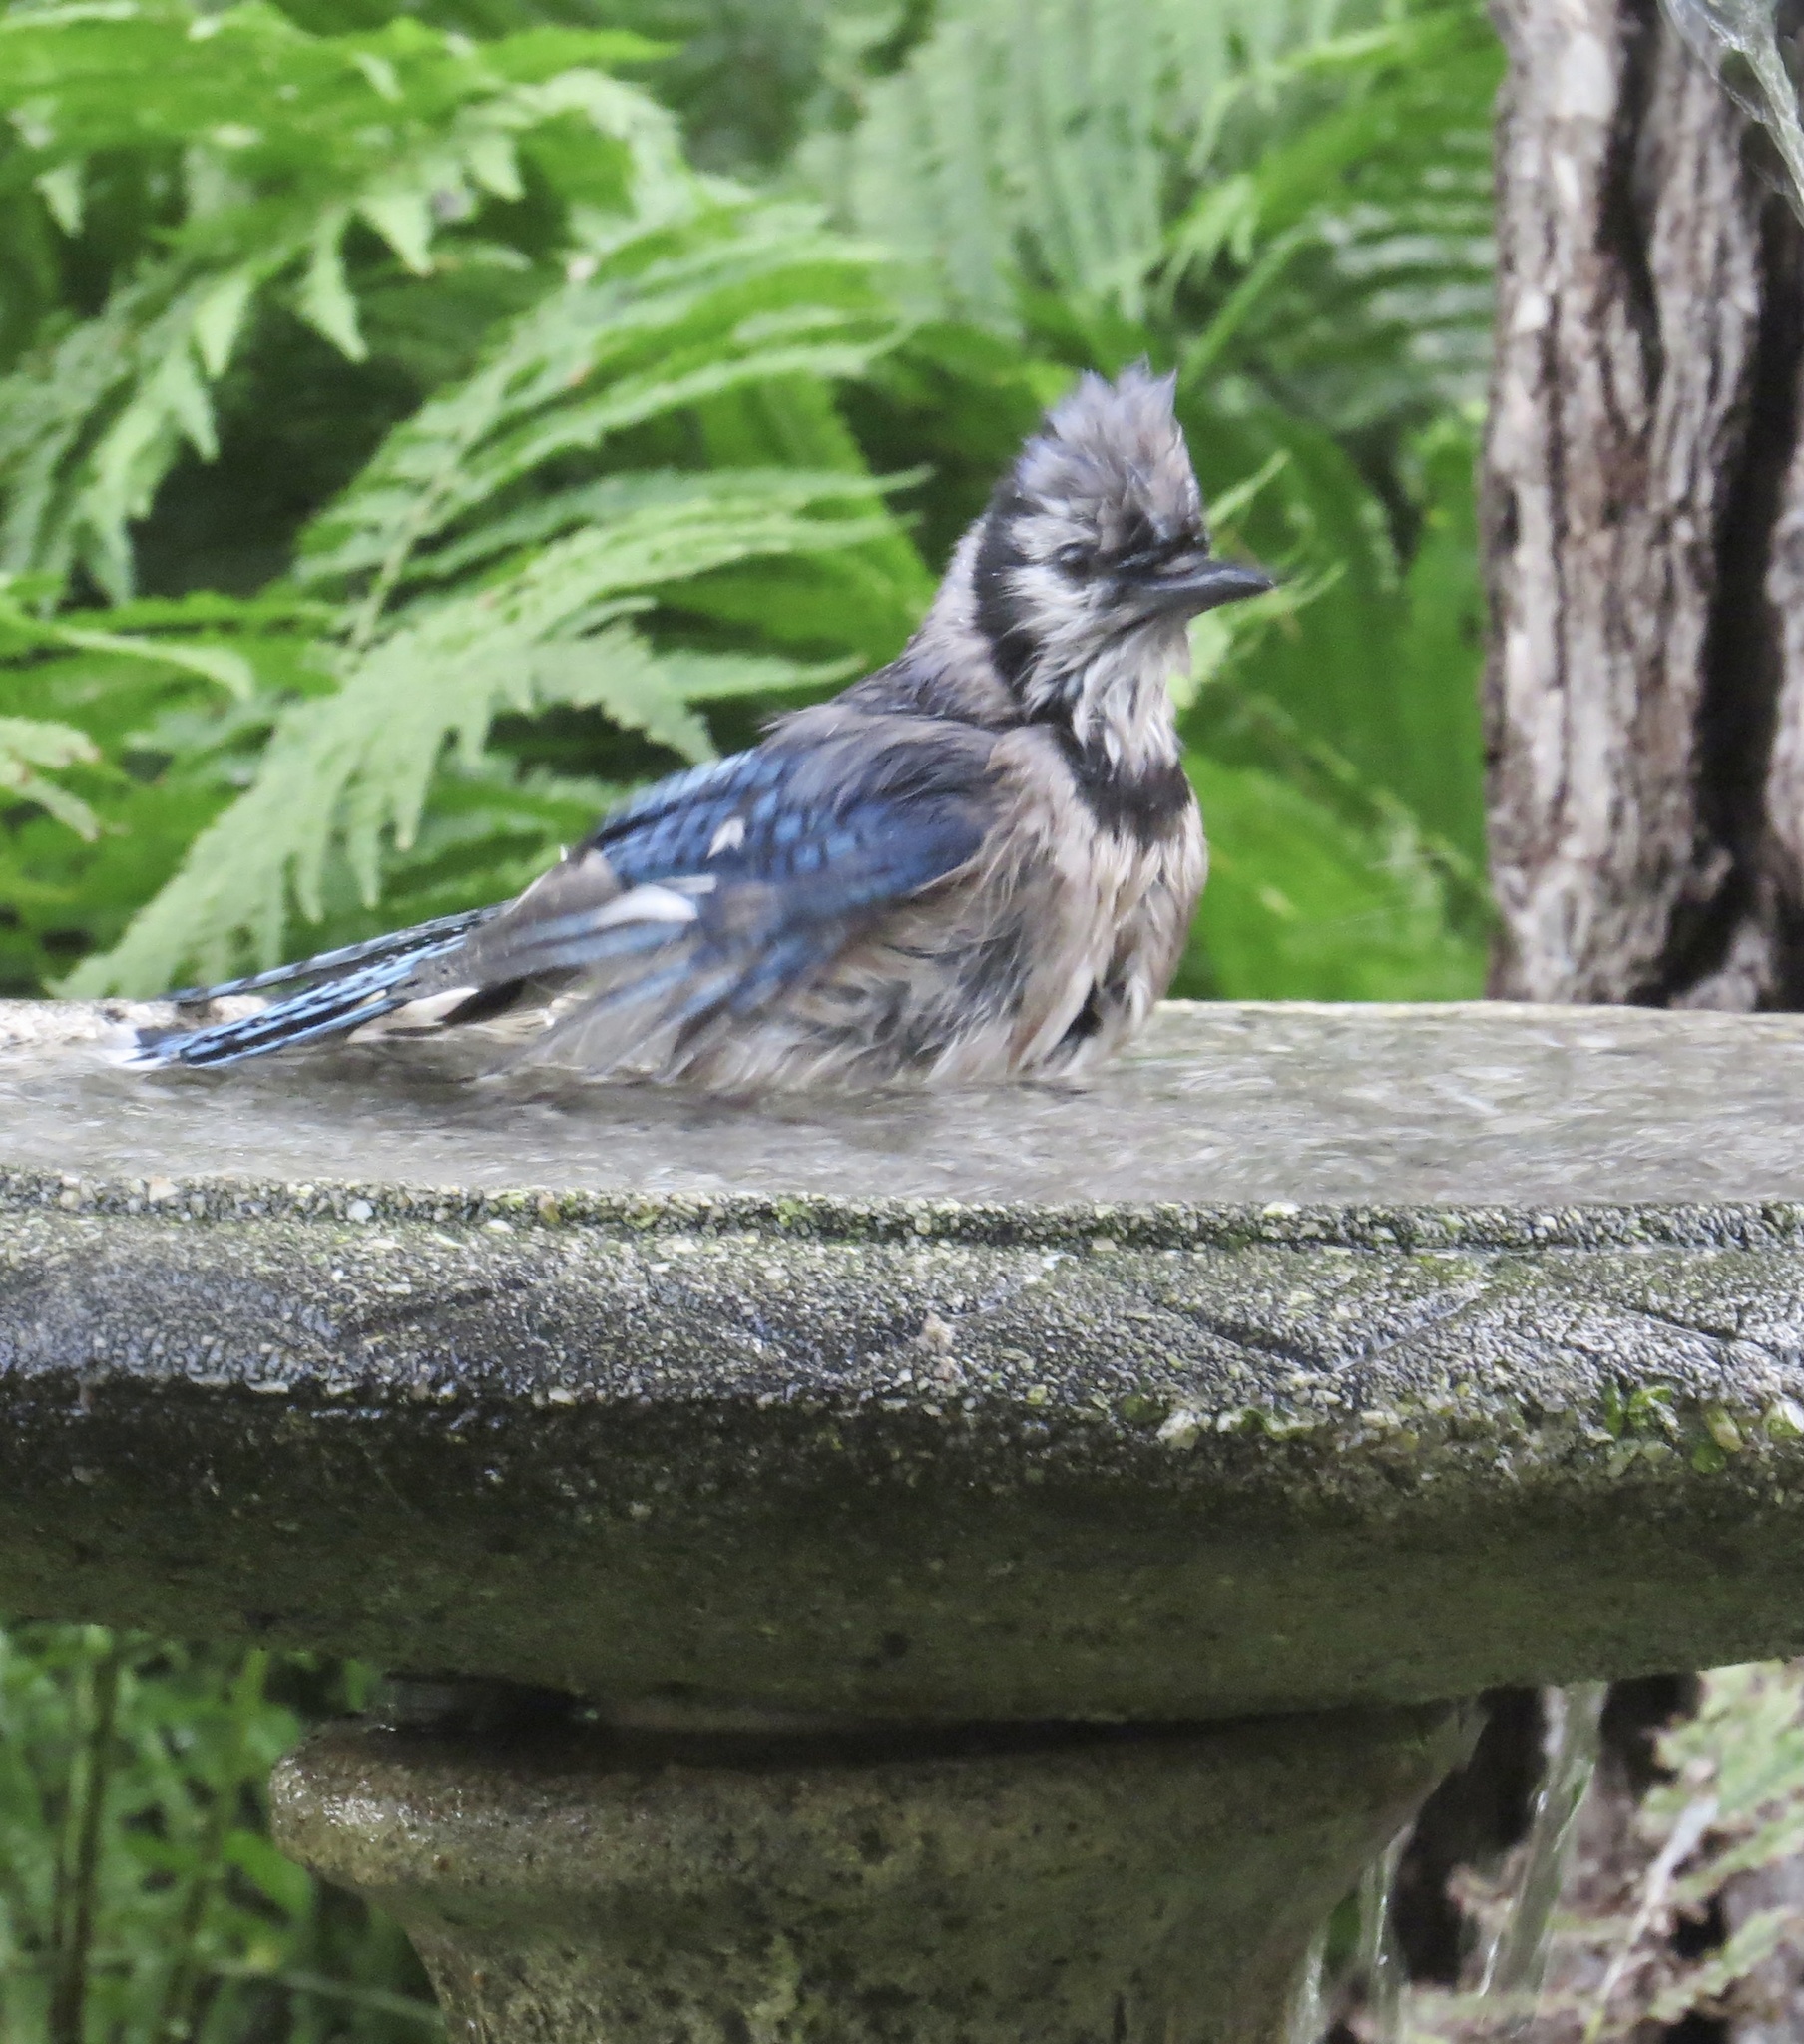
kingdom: Animalia
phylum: Chordata
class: Aves
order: Passeriformes
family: Corvidae
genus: Cyanocitta
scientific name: Cyanocitta cristata
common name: Blue jay
